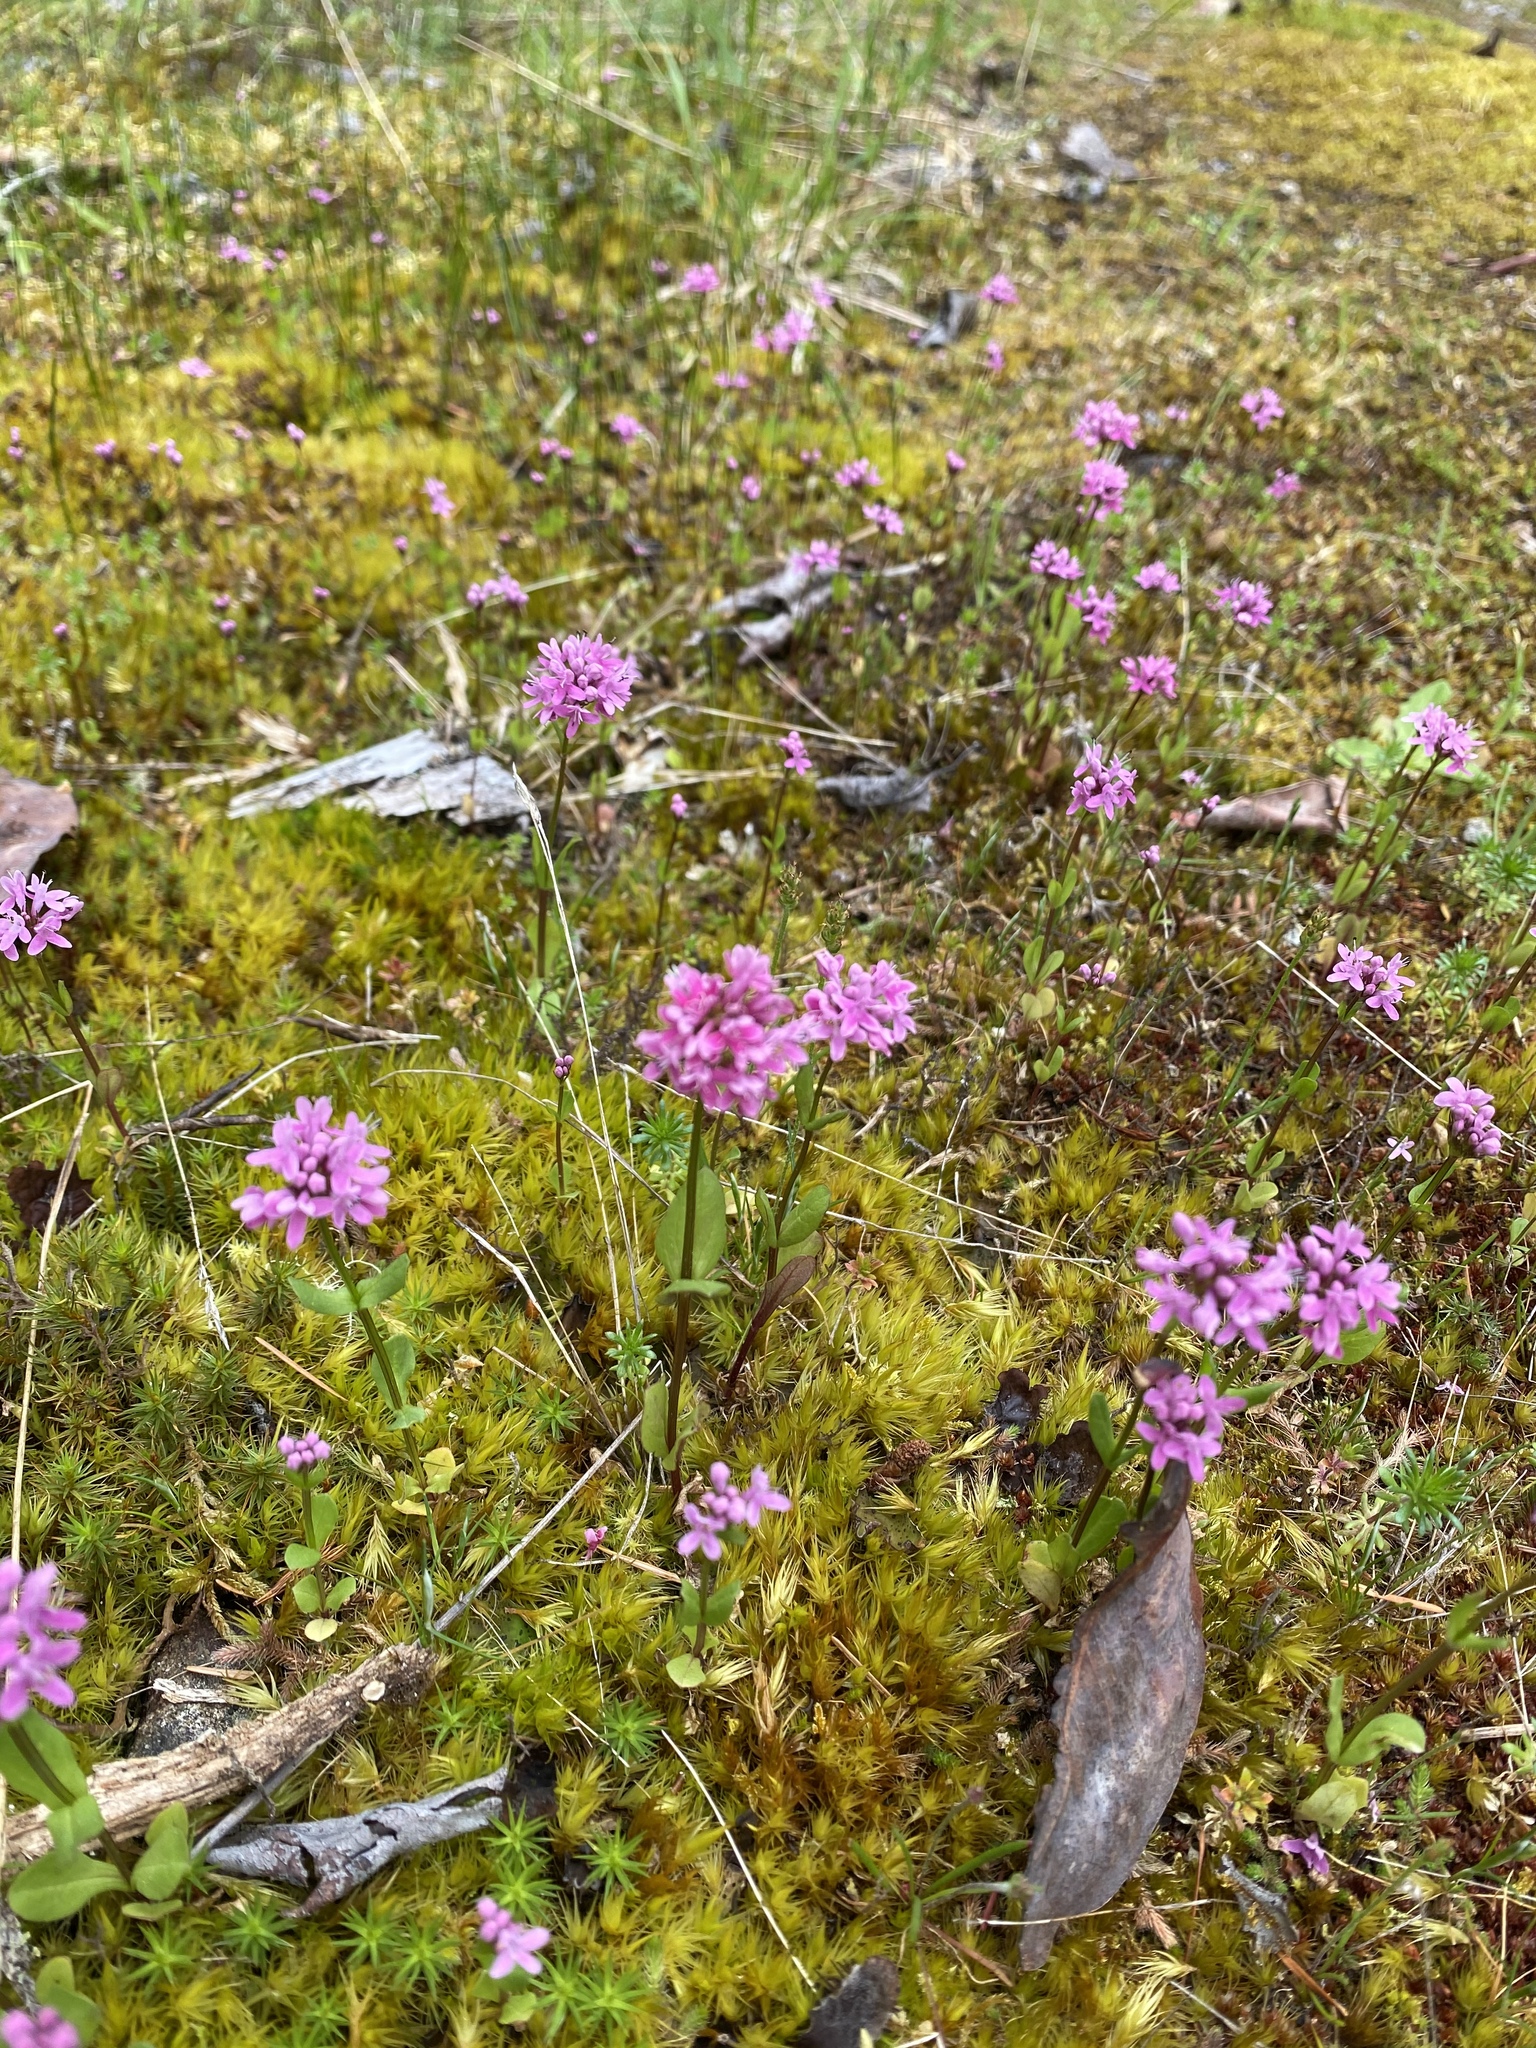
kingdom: Plantae
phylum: Tracheophyta
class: Magnoliopsida
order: Dipsacales
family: Caprifoliaceae
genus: Plectritis
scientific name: Plectritis congesta
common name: Pink plectritis
